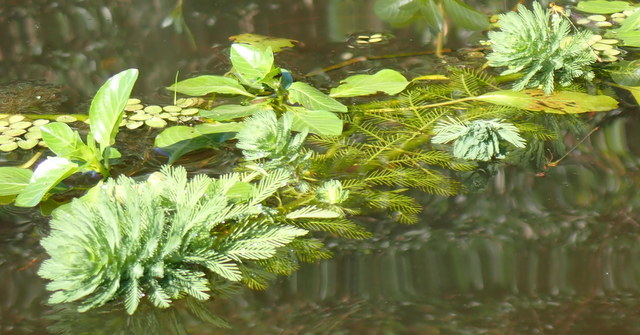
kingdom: Plantae
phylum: Tracheophyta
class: Magnoliopsida
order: Saxifragales
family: Haloragaceae
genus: Myriophyllum
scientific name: Myriophyllum aquaticum
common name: Parrot's feather
